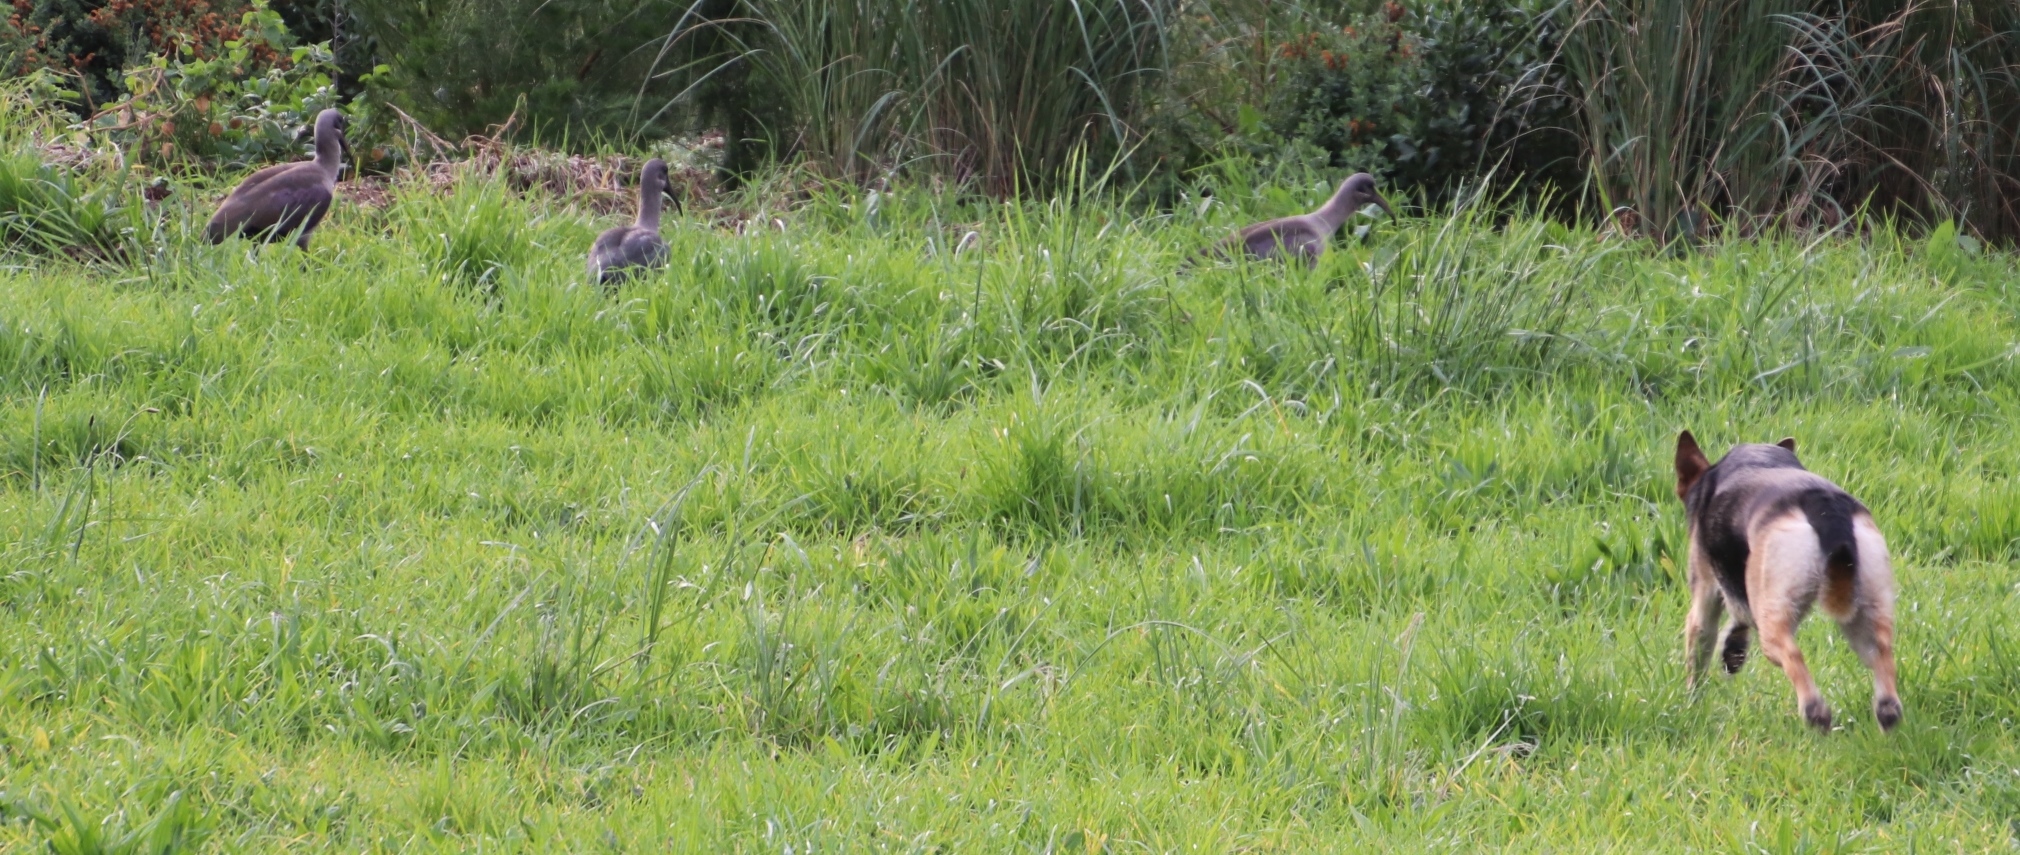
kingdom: Animalia
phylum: Chordata
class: Aves
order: Pelecaniformes
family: Threskiornithidae
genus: Bostrychia
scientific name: Bostrychia hagedash
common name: Hadada ibis
